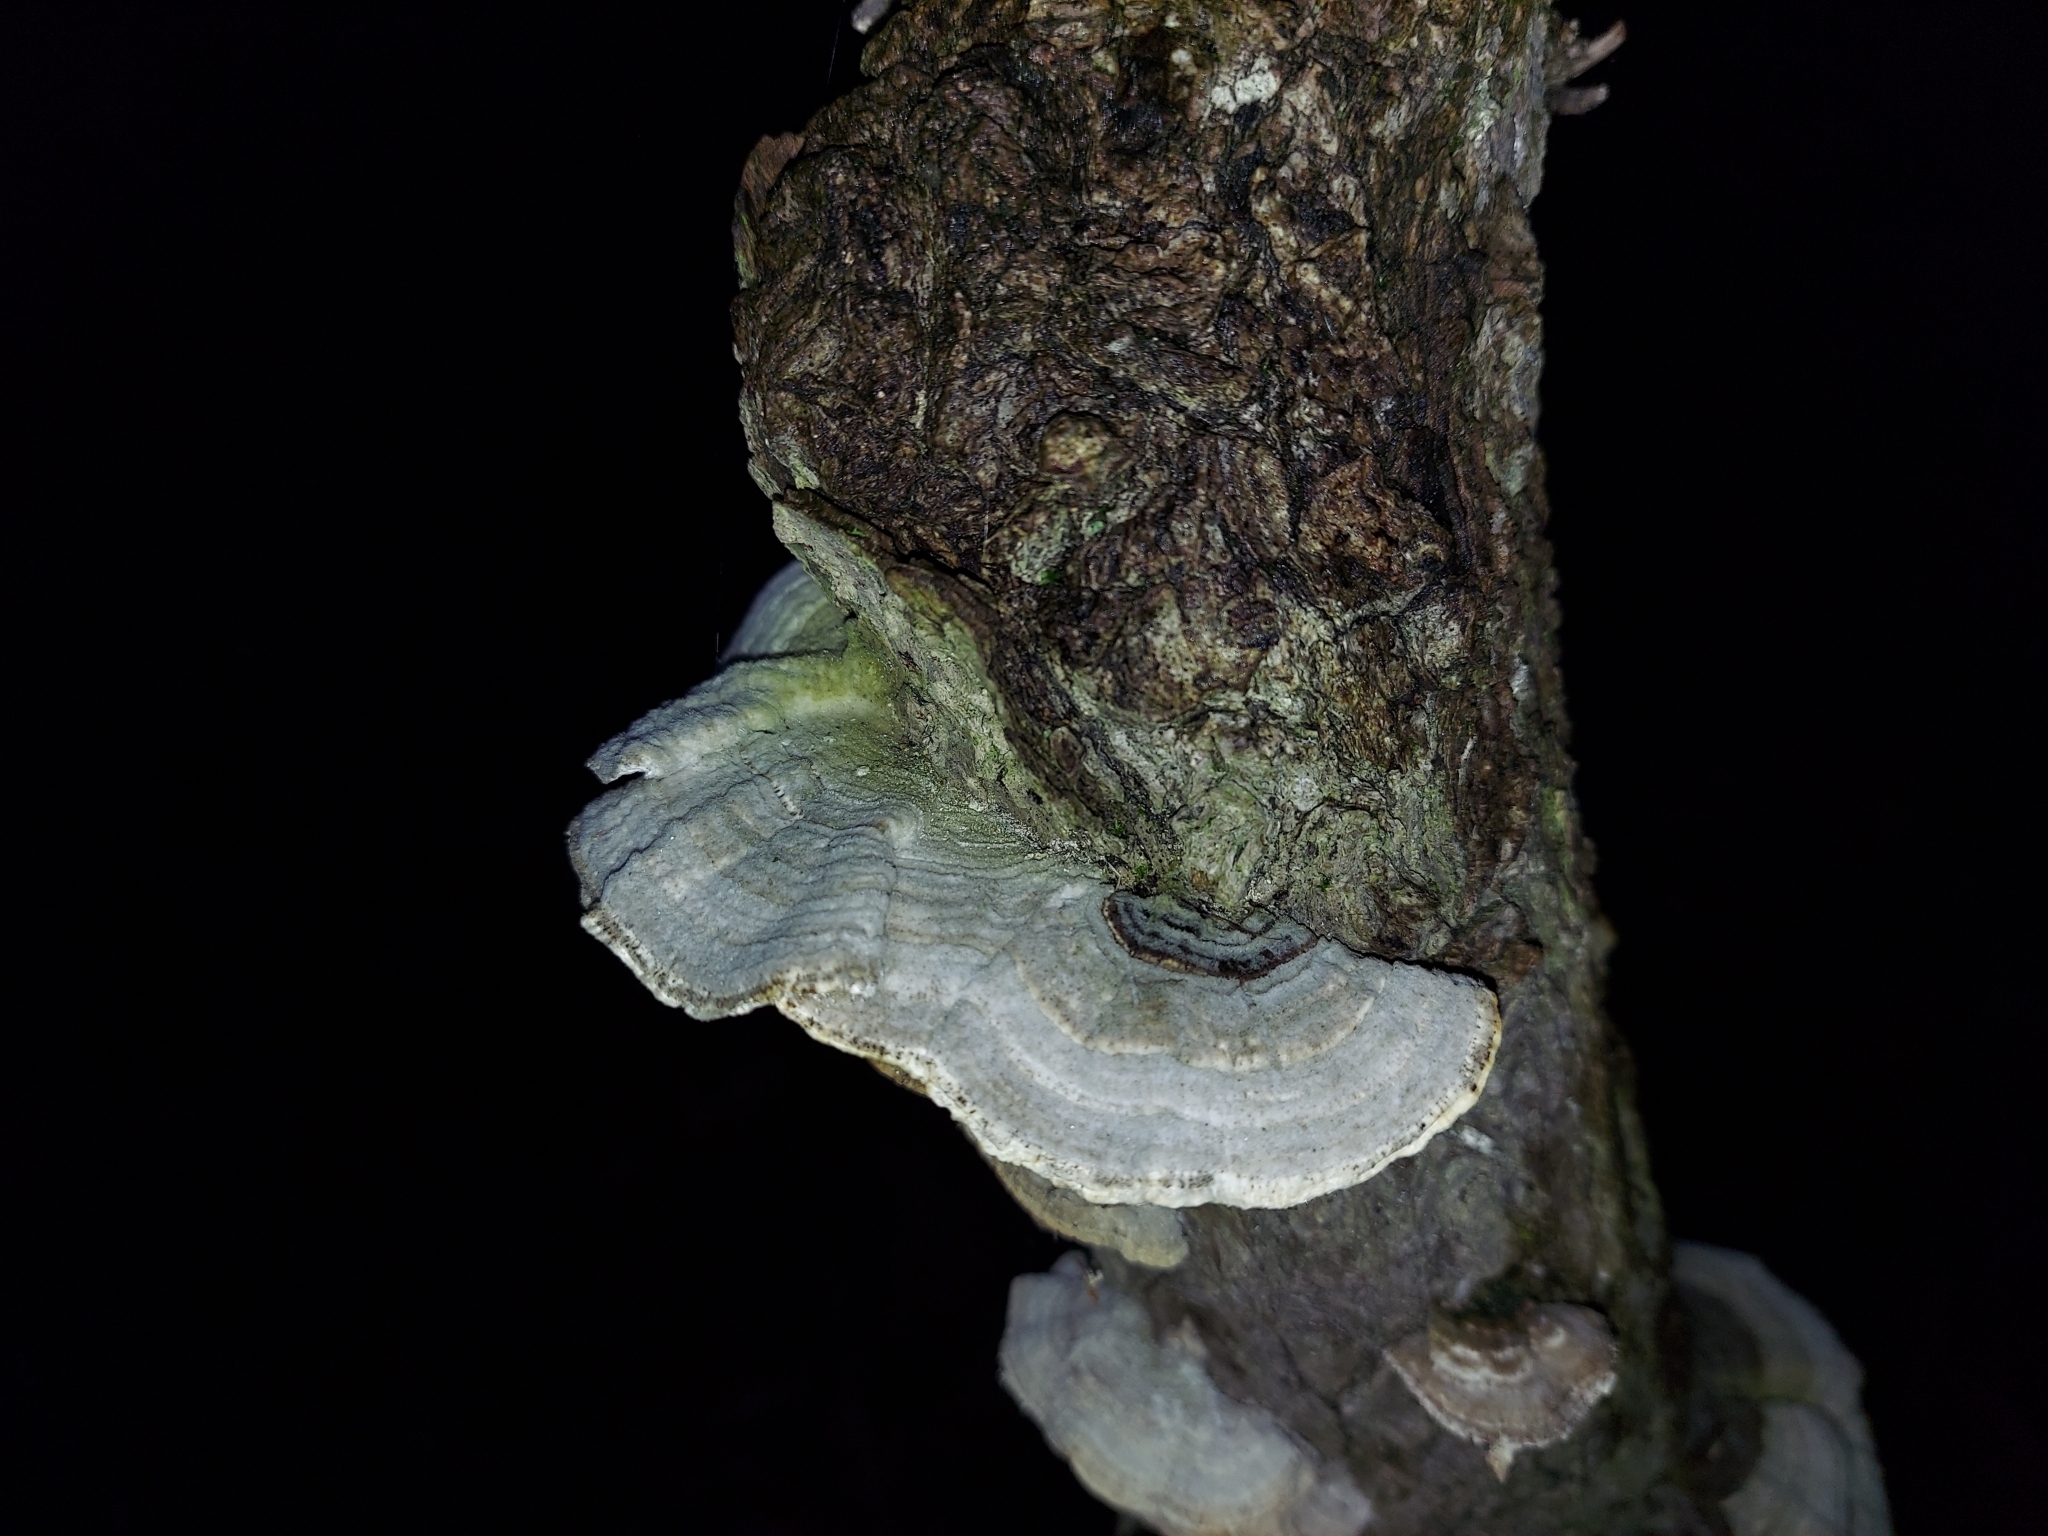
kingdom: Fungi
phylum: Basidiomycota
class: Agaricomycetes
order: Polyporales
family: Polyporaceae
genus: Lenzites
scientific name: Lenzites betulinus
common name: Birch mazegill
